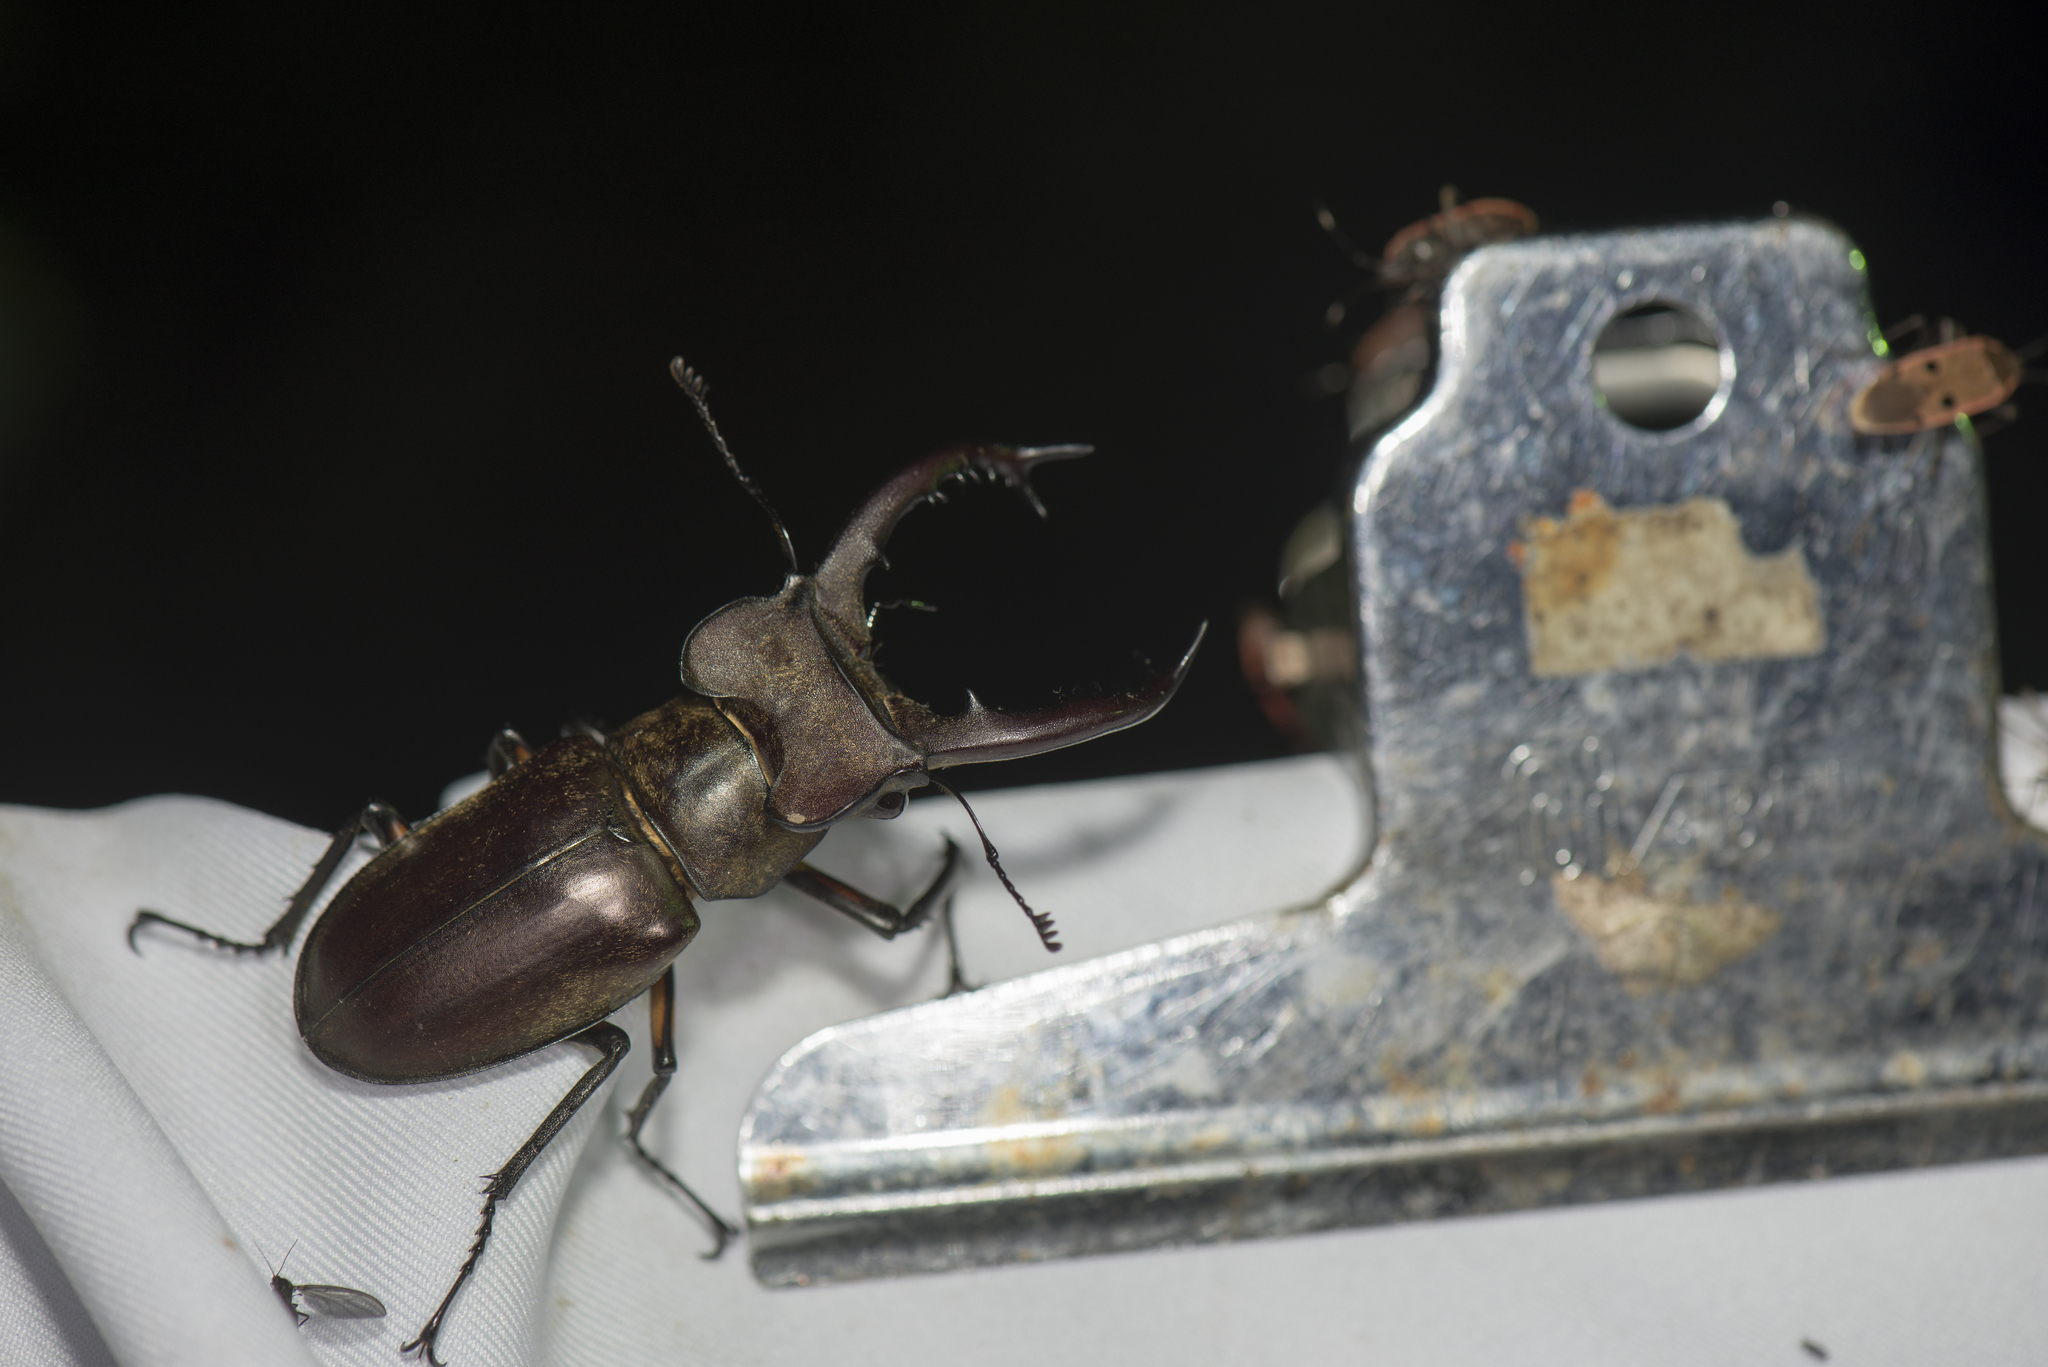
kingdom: Animalia
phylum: Arthropoda
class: Insecta
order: Coleoptera
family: Lucanidae
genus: Lucanus
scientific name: Lucanus maculifemoratus
